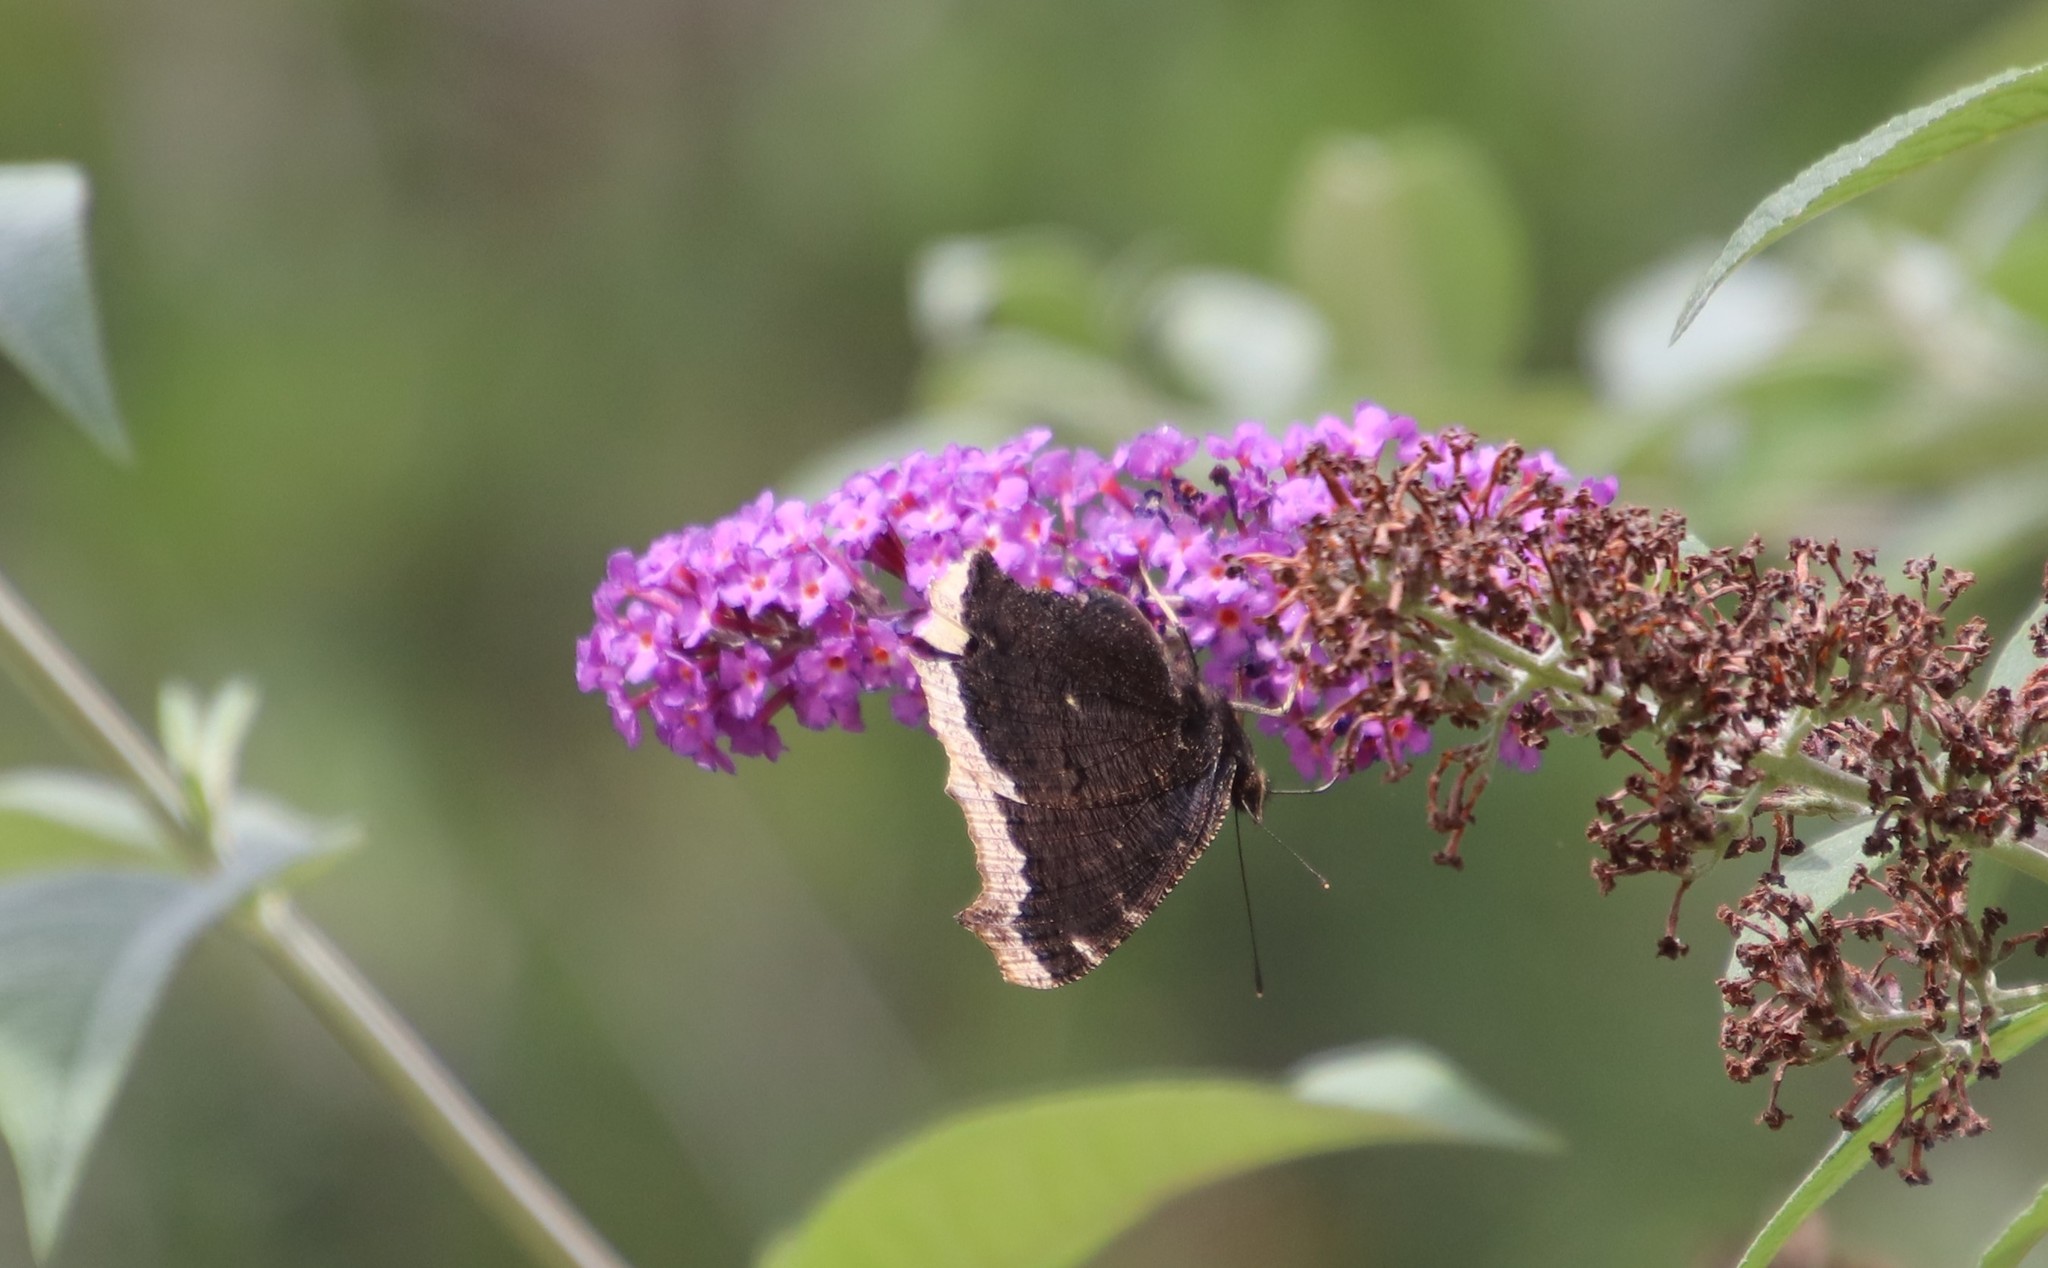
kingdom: Animalia
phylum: Arthropoda
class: Insecta
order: Lepidoptera
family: Nymphalidae
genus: Nymphalis
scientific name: Nymphalis antiopa
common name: Camberwell beauty
